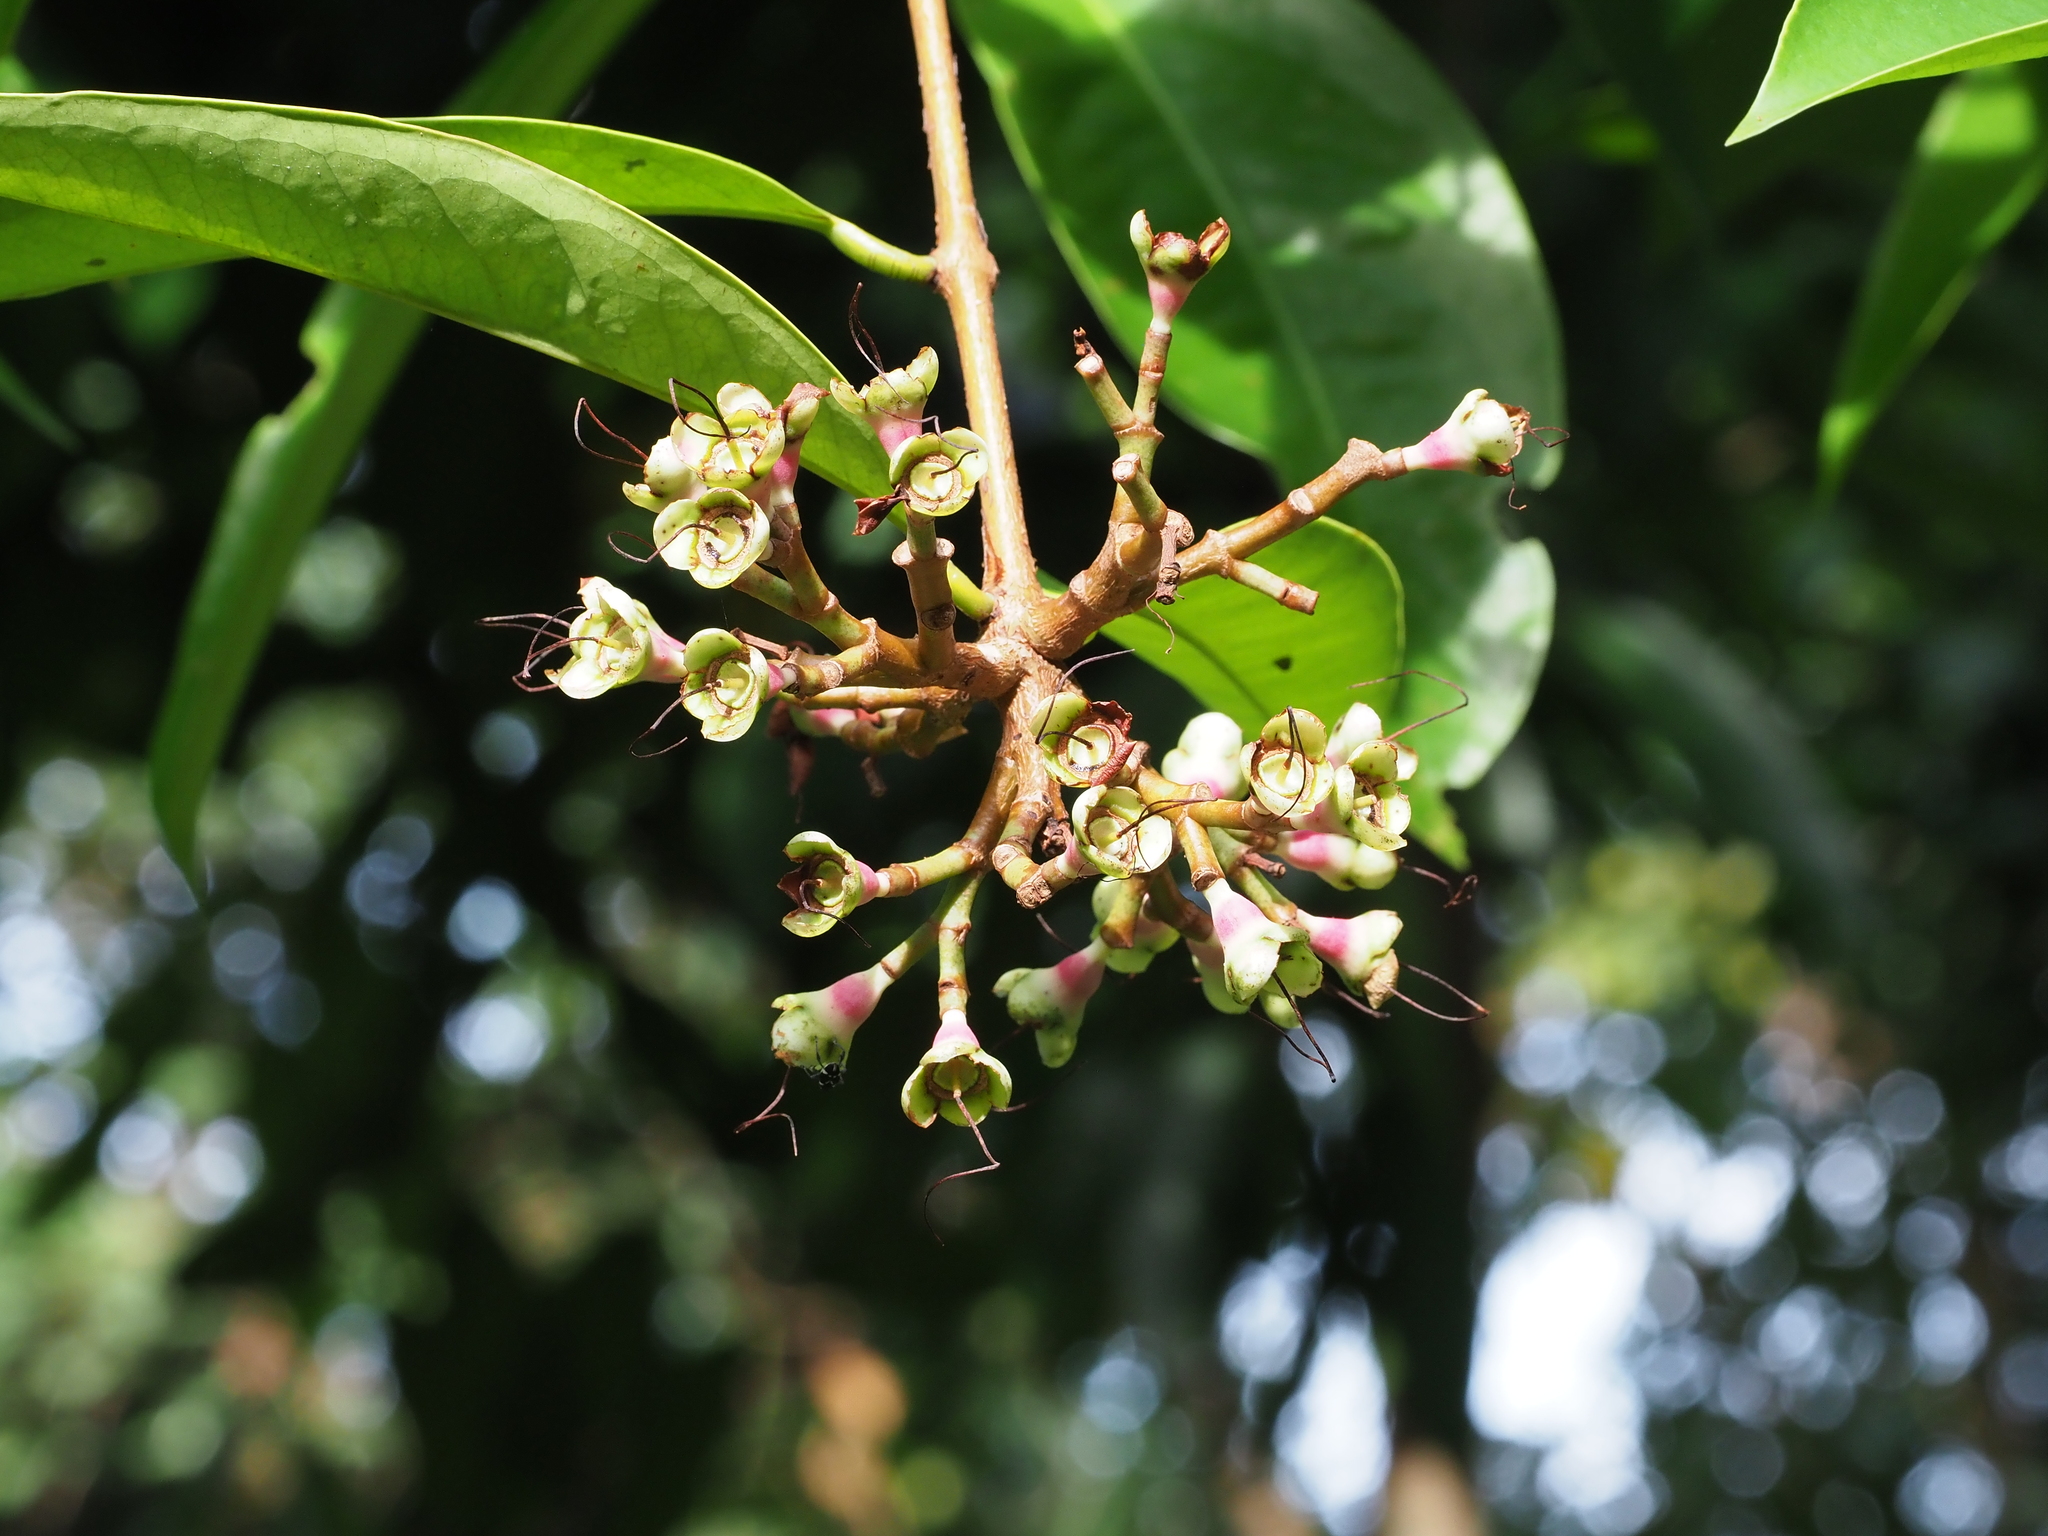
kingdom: Plantae
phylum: Tracheophyta
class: Magnoliopsida
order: Myrtales
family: Myrtaceae
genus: Syzygium
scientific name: Syzygium pycnanthum
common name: Wild rose
